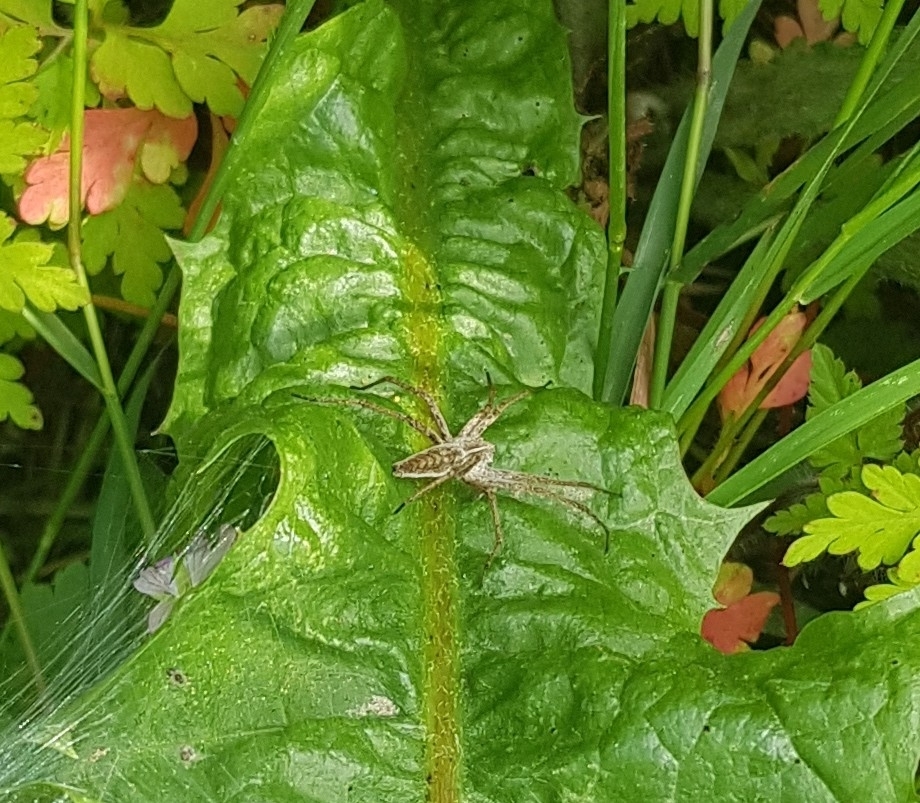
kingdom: Animalia
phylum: Arthropoda
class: Arachnida
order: Araneae
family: Pisauridae
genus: Pisaura
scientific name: Pisaura mirabilis
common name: Tent spider
